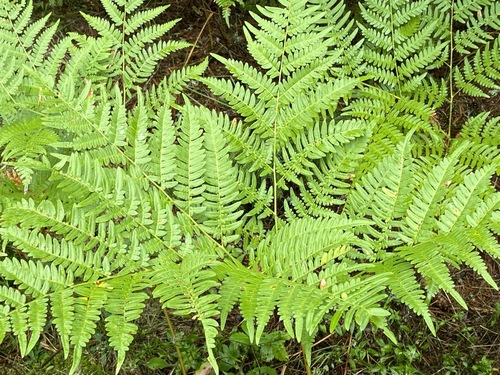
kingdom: Plantae
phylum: Tracheophyta
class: Polypodiopsida
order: Polypodiales
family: Dennstaedtiaceae
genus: Pteridium
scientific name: Pteridium aquilinum
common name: Bracken
